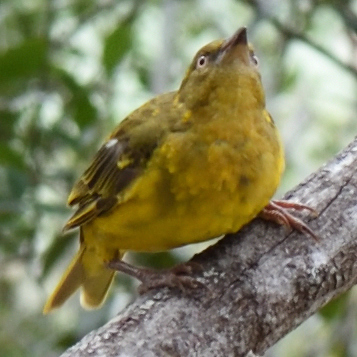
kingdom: Animalia
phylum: Chordata
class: Aves
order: Passeriformes
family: Ploceidae
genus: Ploceus
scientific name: Ploceus capensis
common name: Cape weaver
